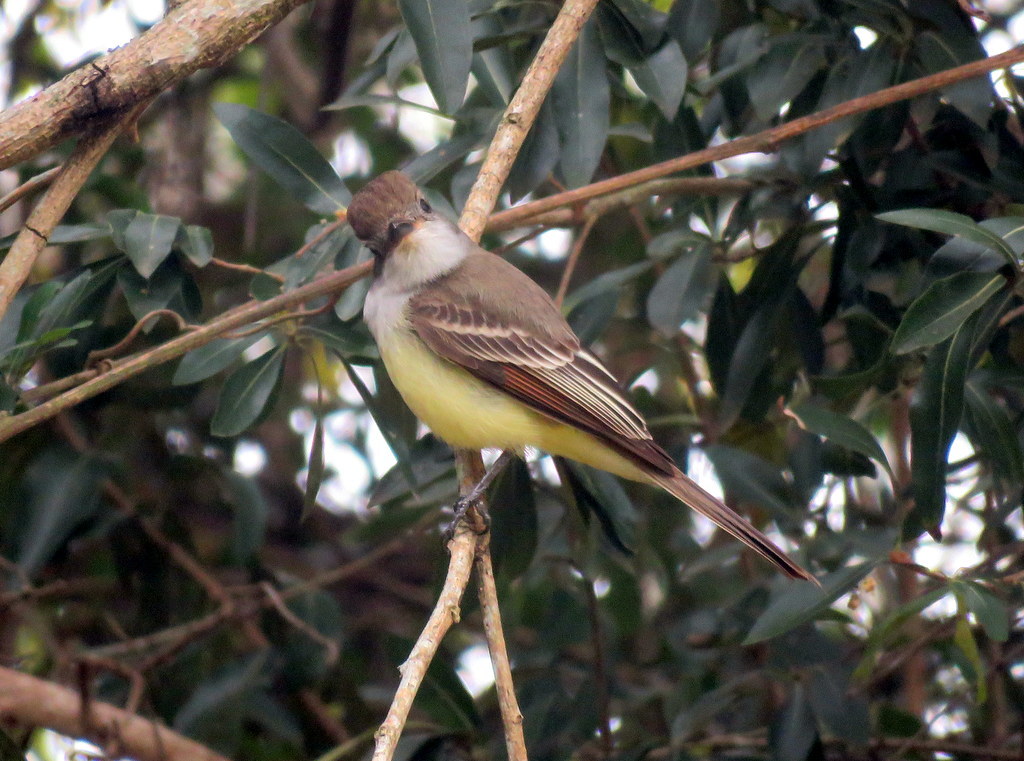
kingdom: Animalia
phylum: Chordata
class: Aves
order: Passeriformes
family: Tyrannidae
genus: Myiarchus
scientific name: Myiarchus tyrannulus
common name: Brown-crested flycatcher
